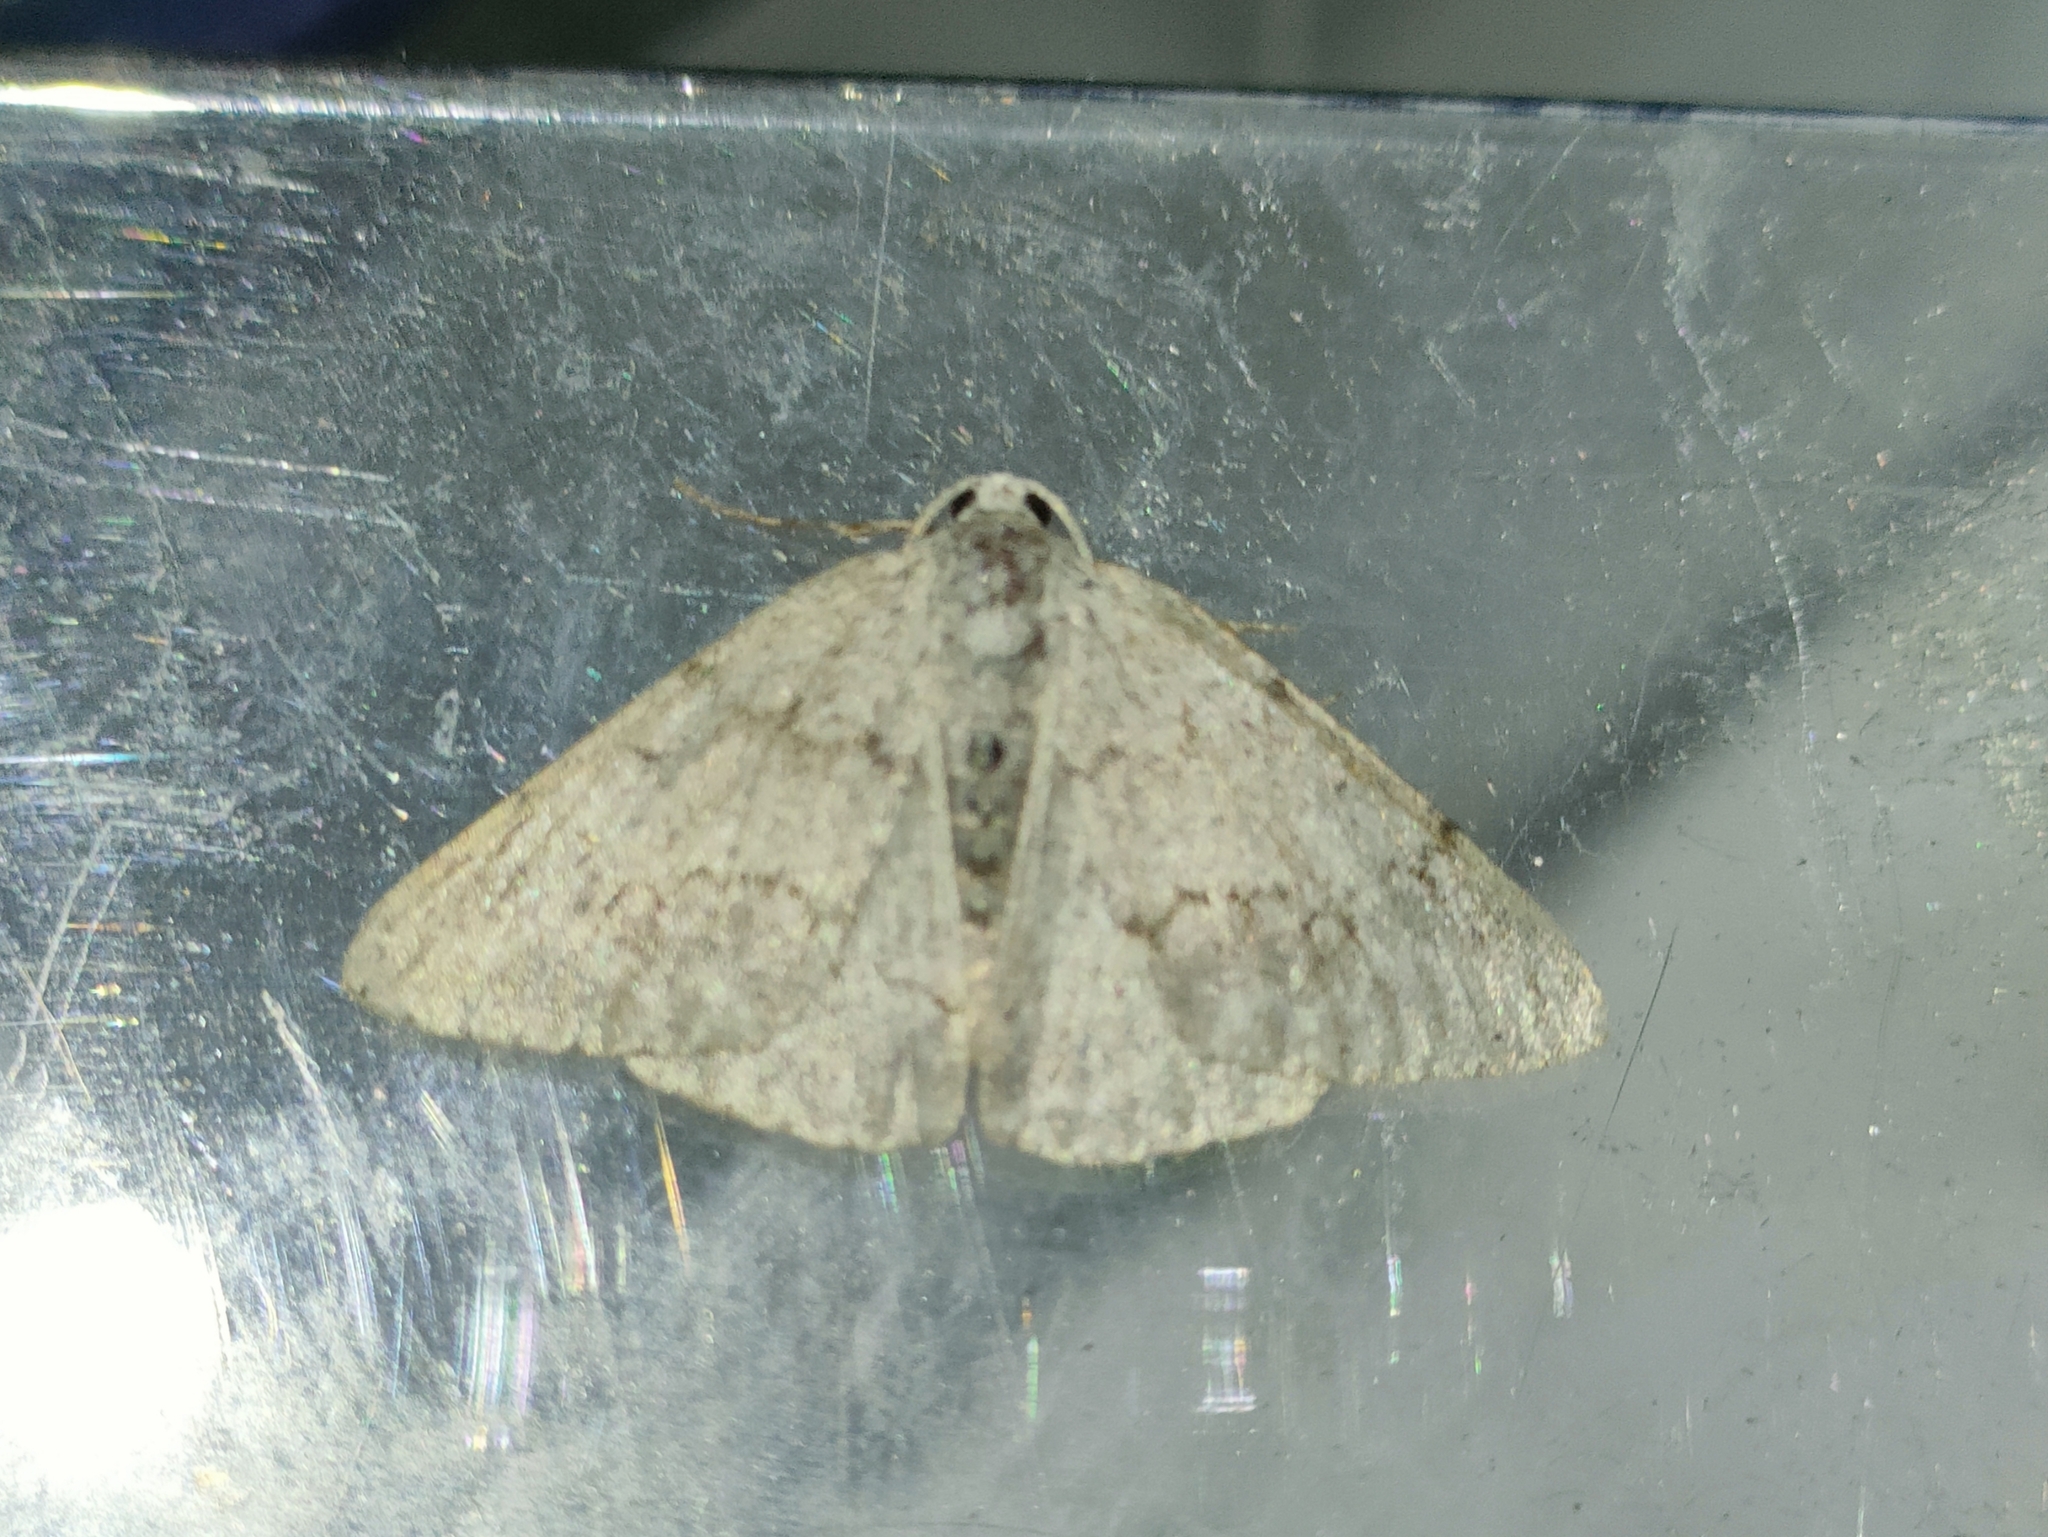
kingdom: Animalia
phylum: Arthropoda
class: Insecta
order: Lepidoptera
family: Geometridae
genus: Pseudoterpna
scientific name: Pseudoterpna coronillaria
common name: Jersey emerald
